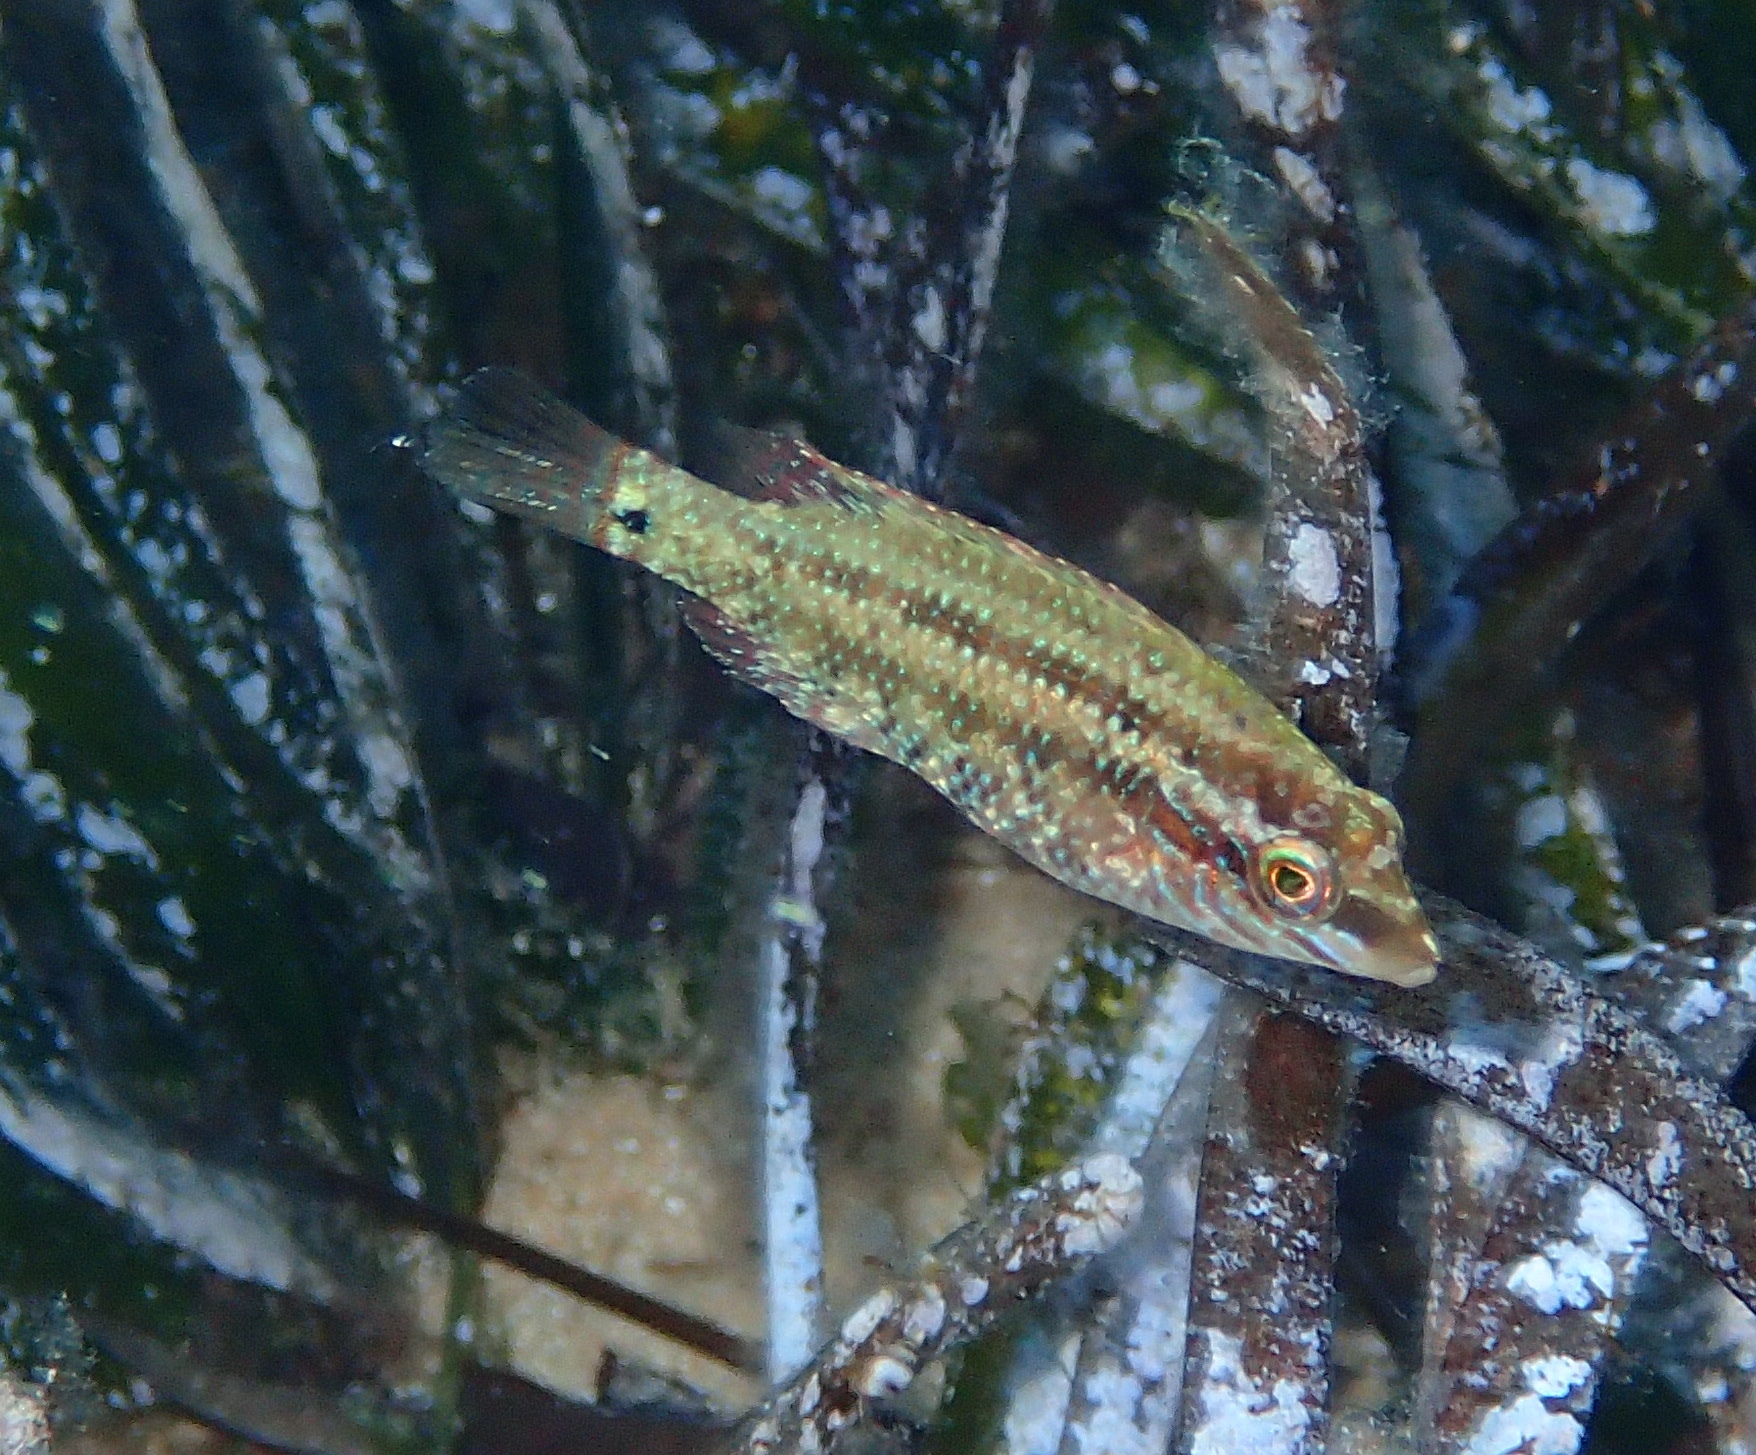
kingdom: Animalia
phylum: Chordata
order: Perciformes
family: Labridae
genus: Symphodus
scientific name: Symphodus roissali
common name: Five-spotted wrasse
